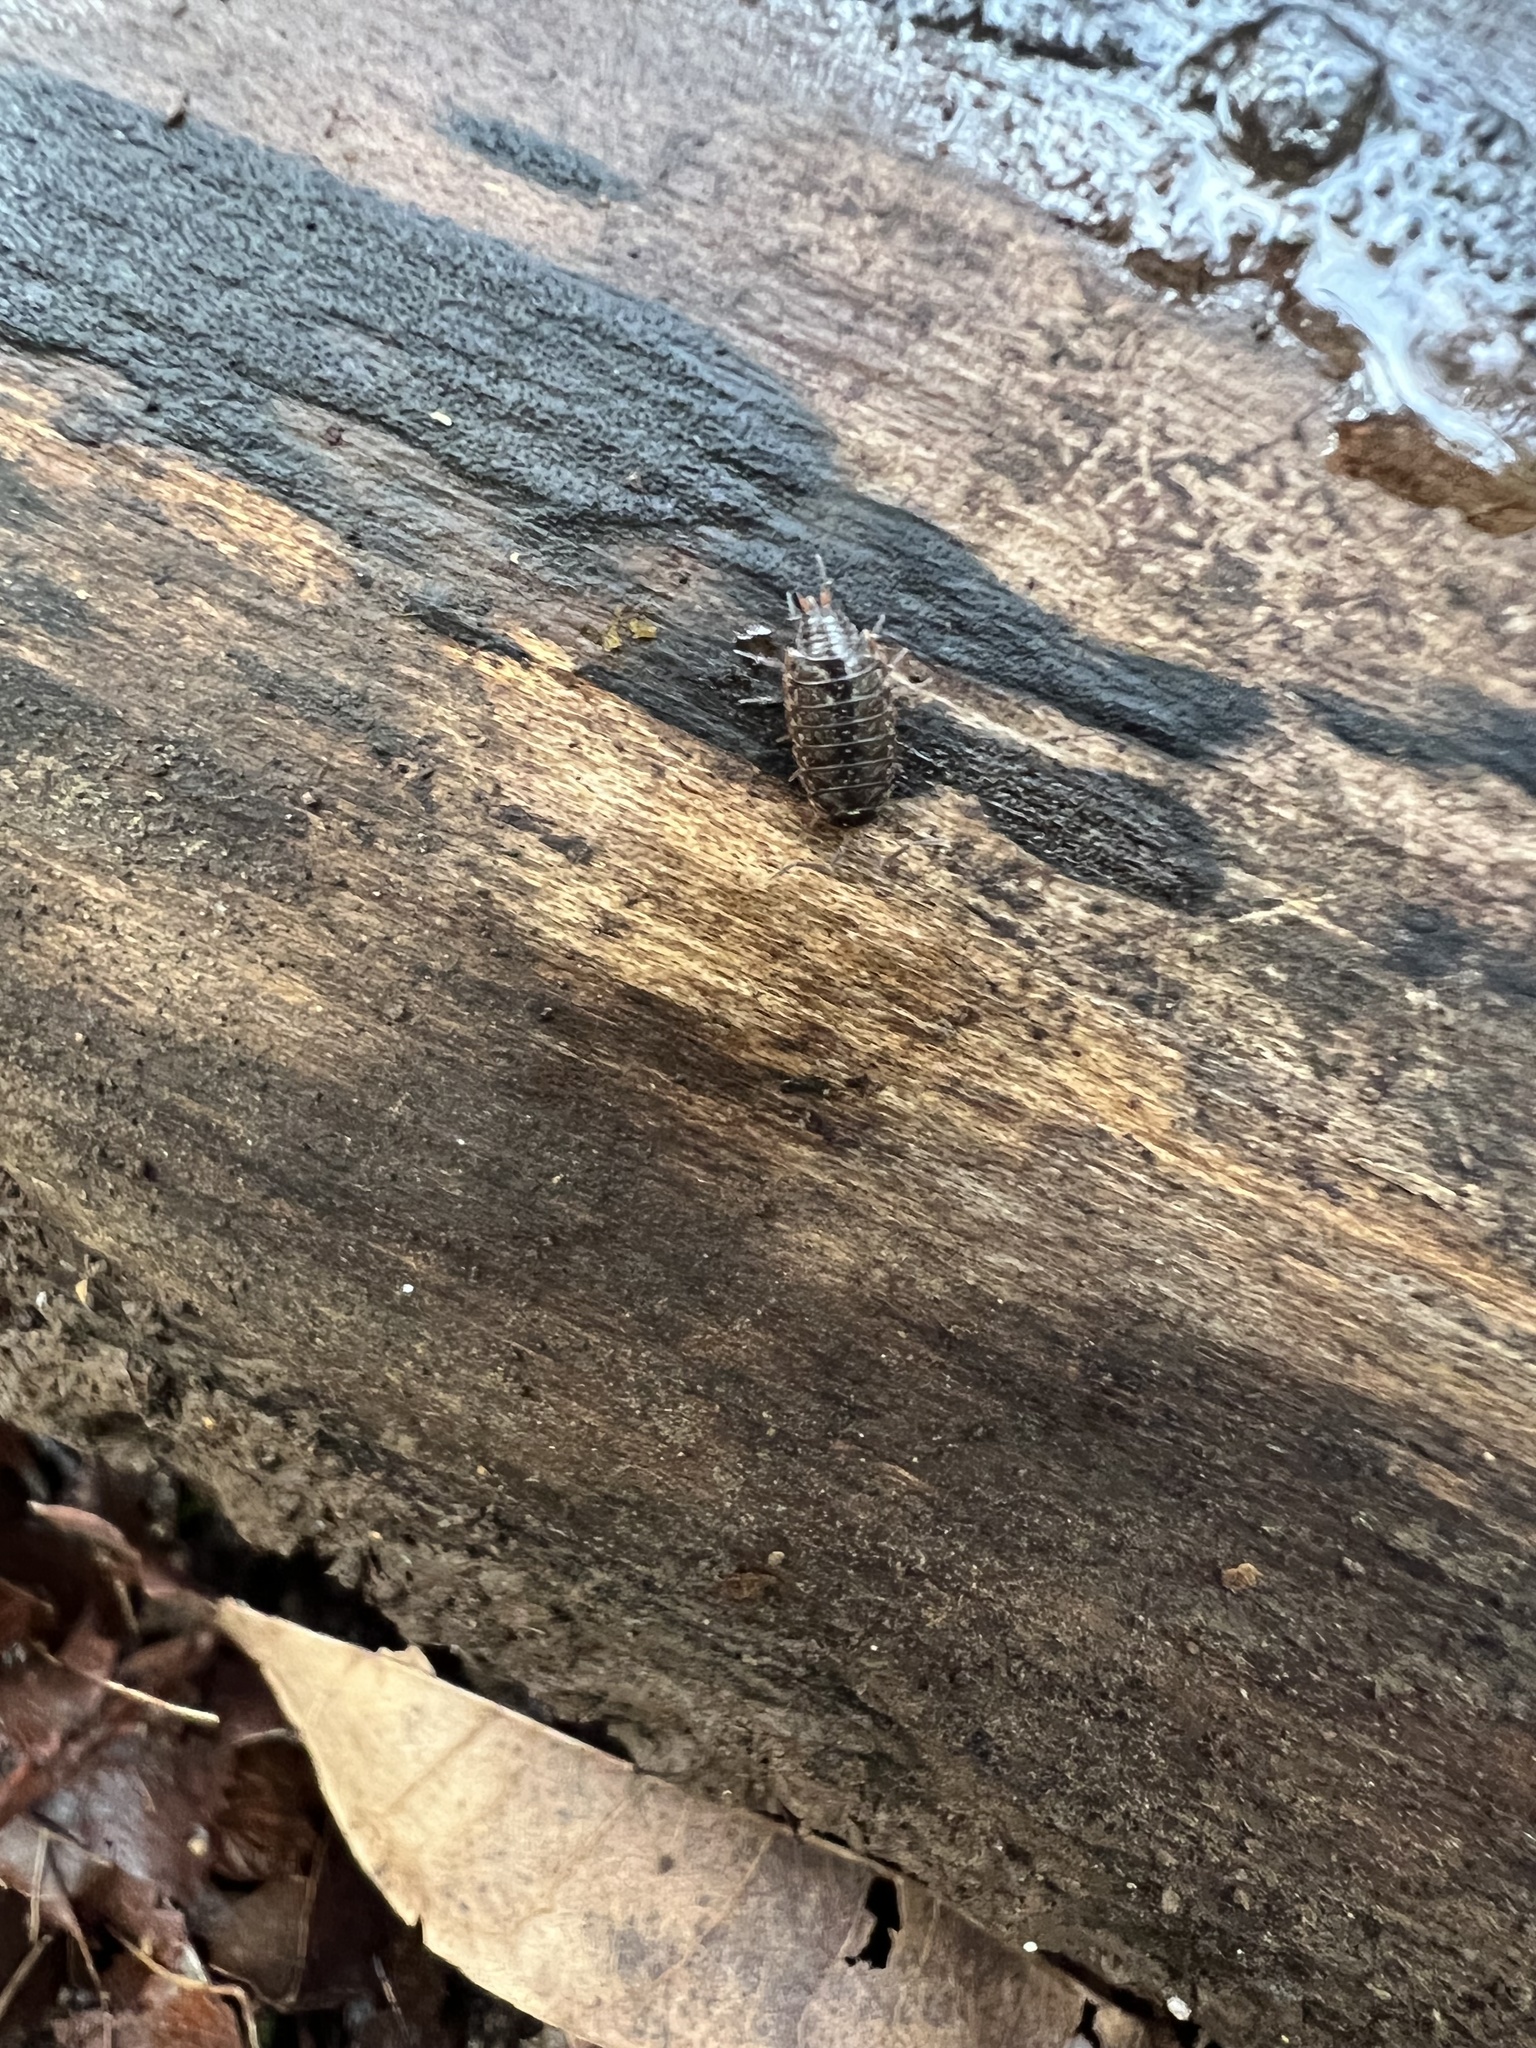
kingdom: Animalia
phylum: Arthropoda
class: Malacostraca
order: Isopoda
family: Philosciidae
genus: Philoscia
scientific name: Philoscia muscorum
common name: Common striped woodlouse
